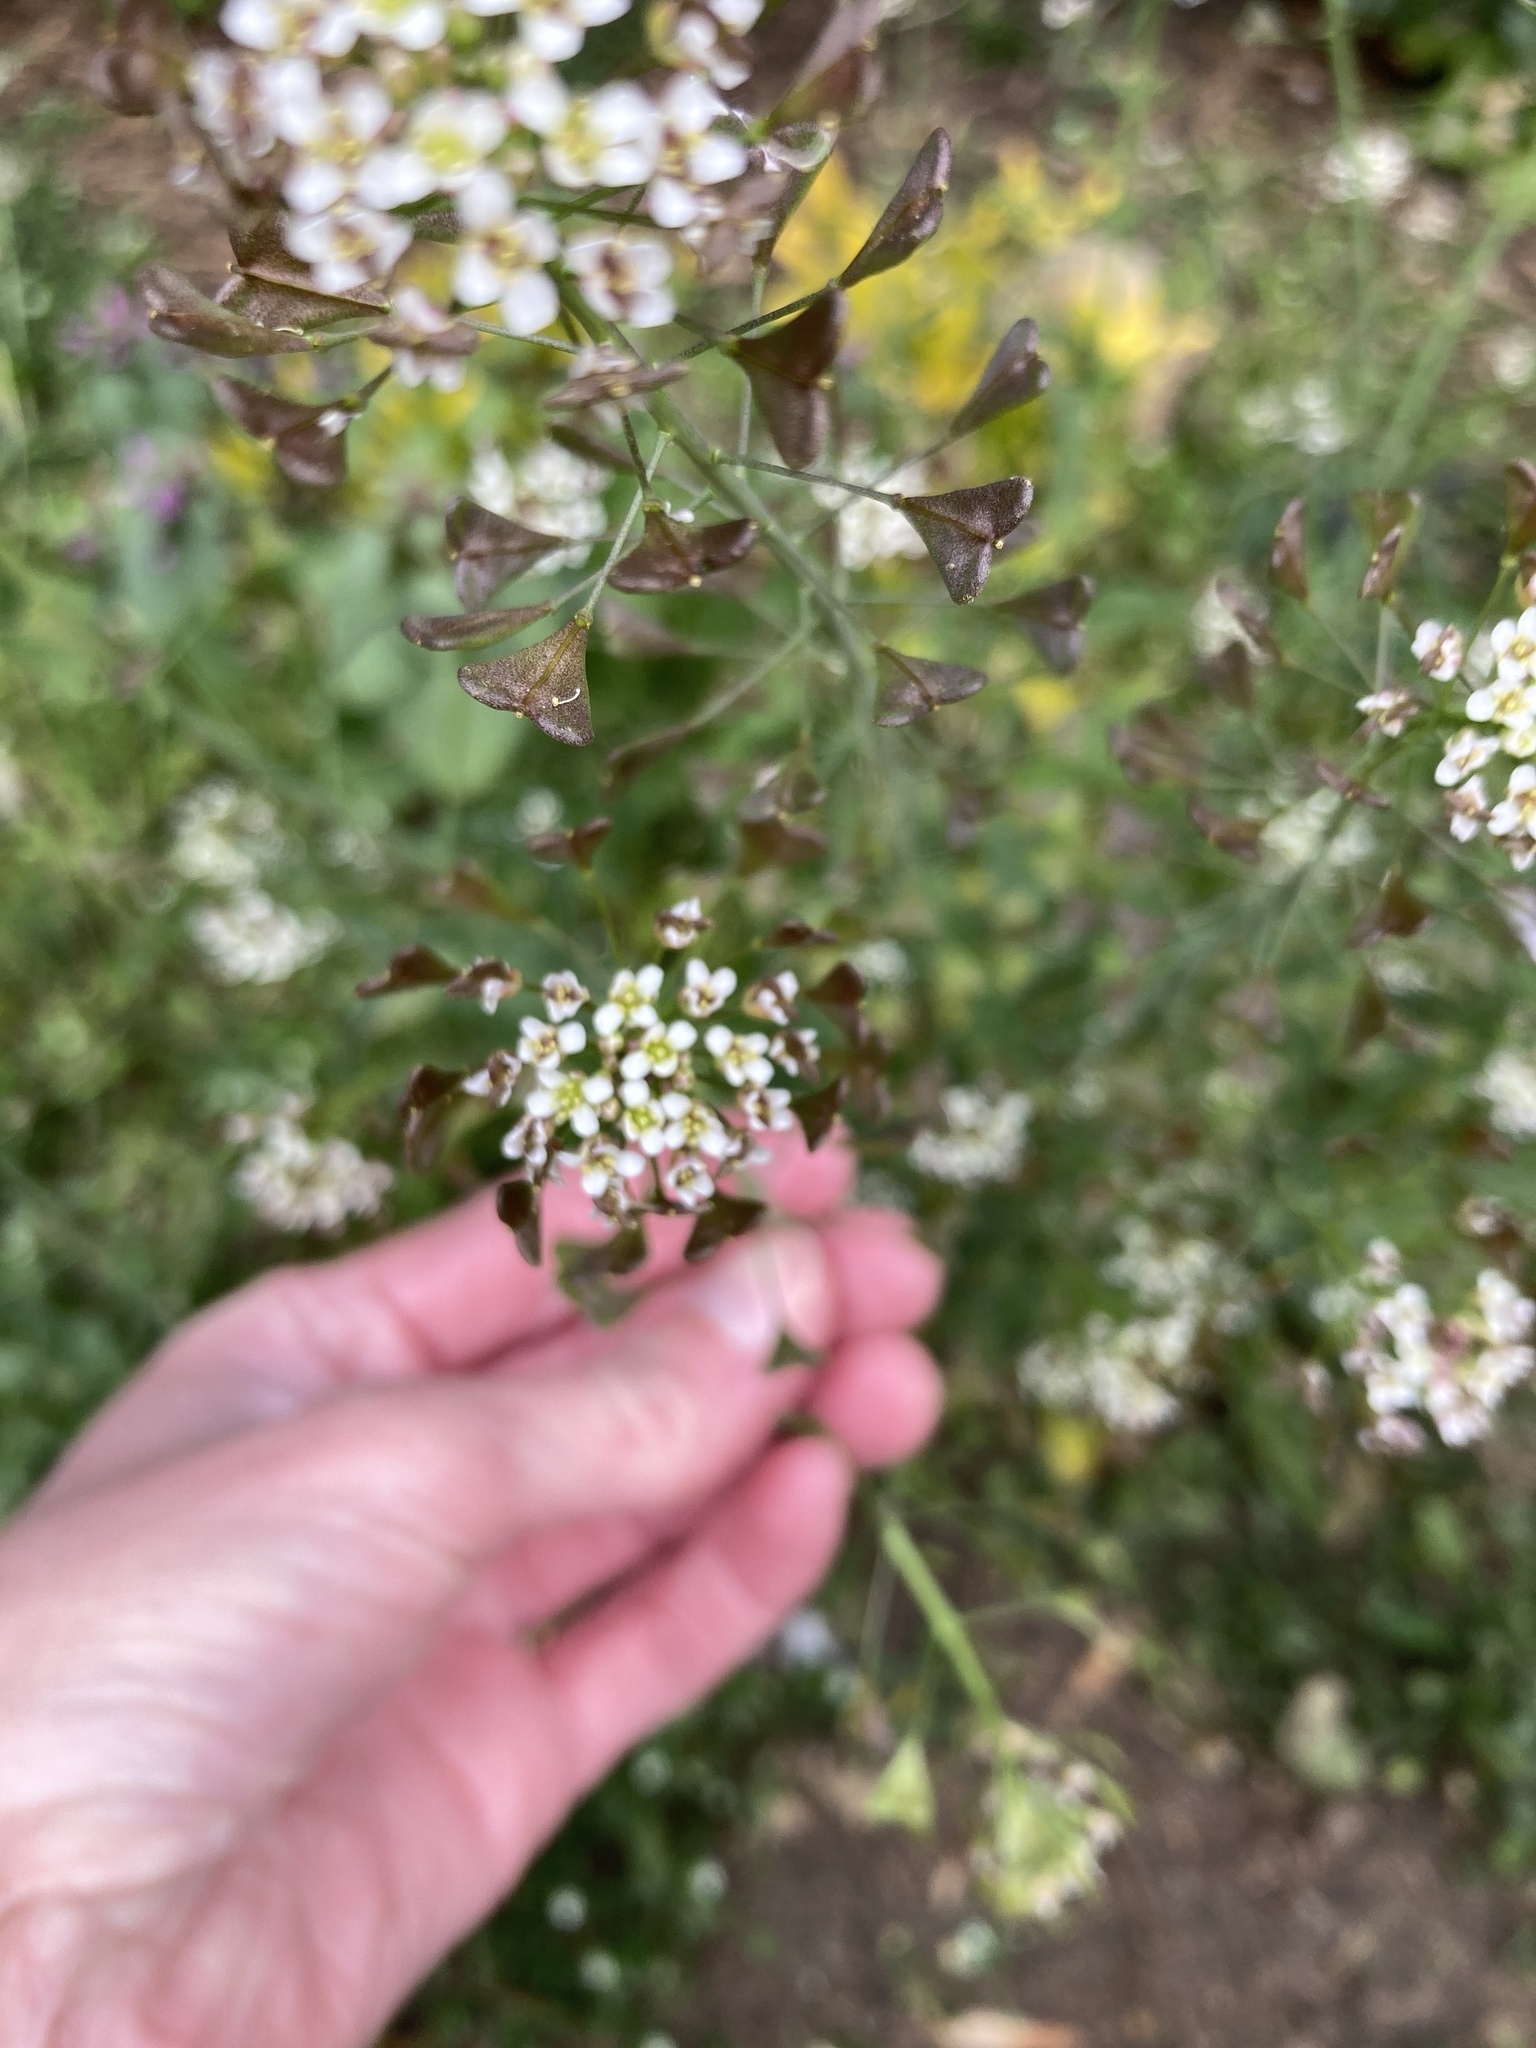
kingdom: Plantae
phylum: Tracheophyta
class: Magnoliopsida
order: Brassicales
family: Brassicaceae
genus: Capsella
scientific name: Capsella bursa-pastoris
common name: Shepherd's purse
